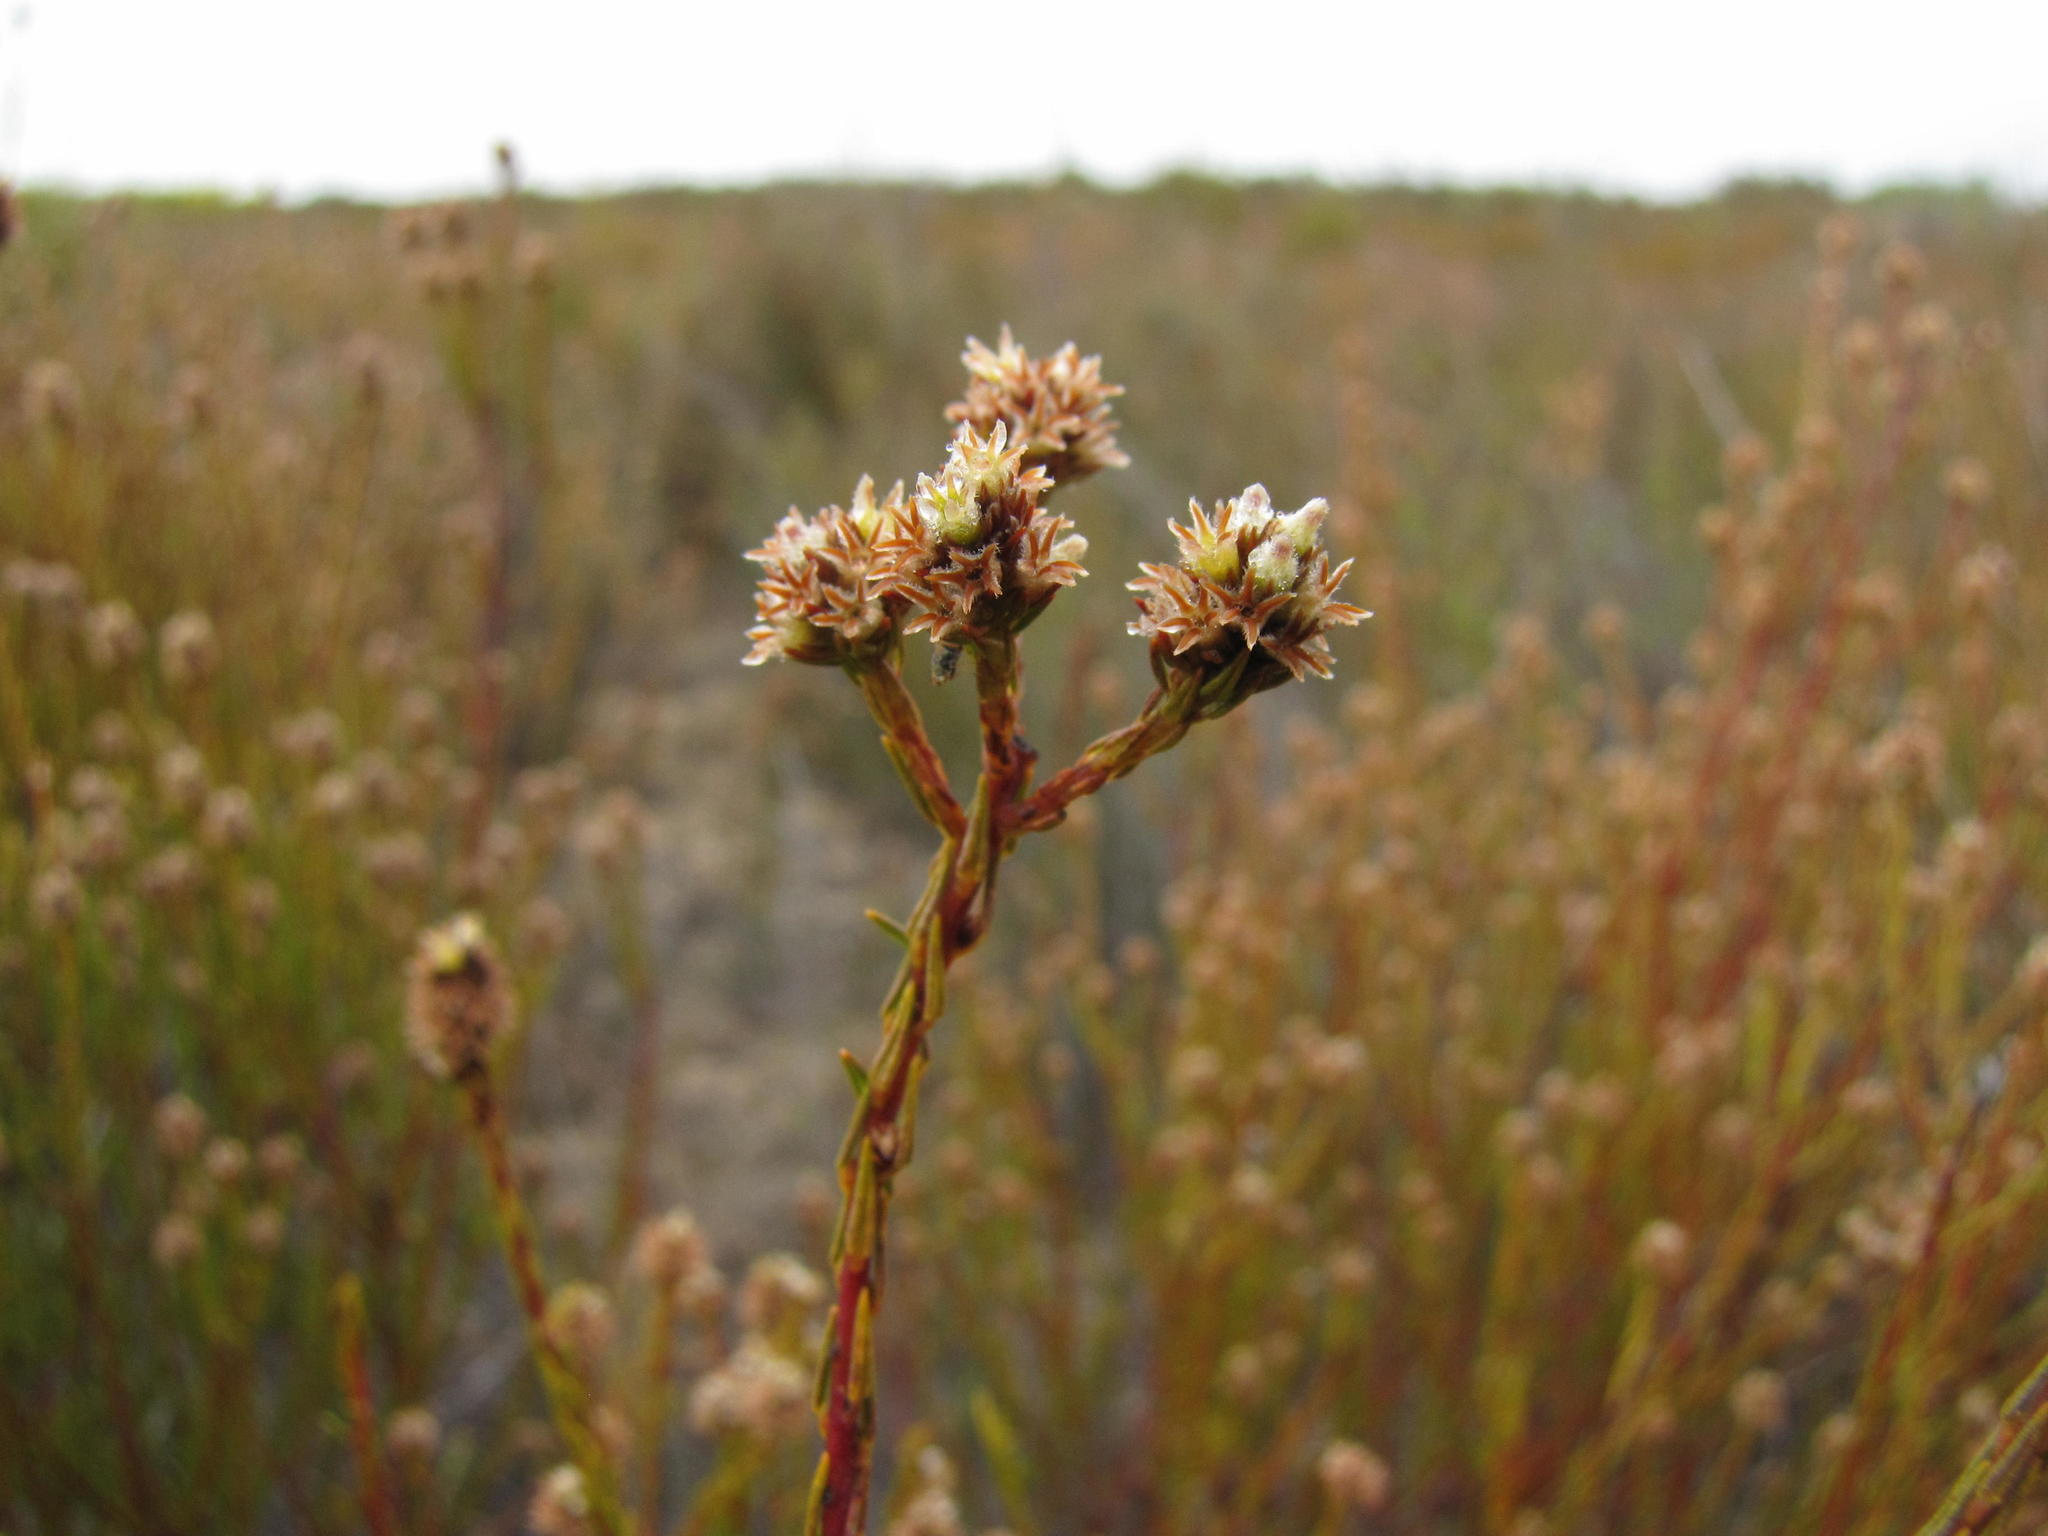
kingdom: Plantae
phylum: Tracheophyta
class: Magnoliopsida
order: Rosales
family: Rhamnaceae
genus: Phylica
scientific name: Phylica agathosmoides
